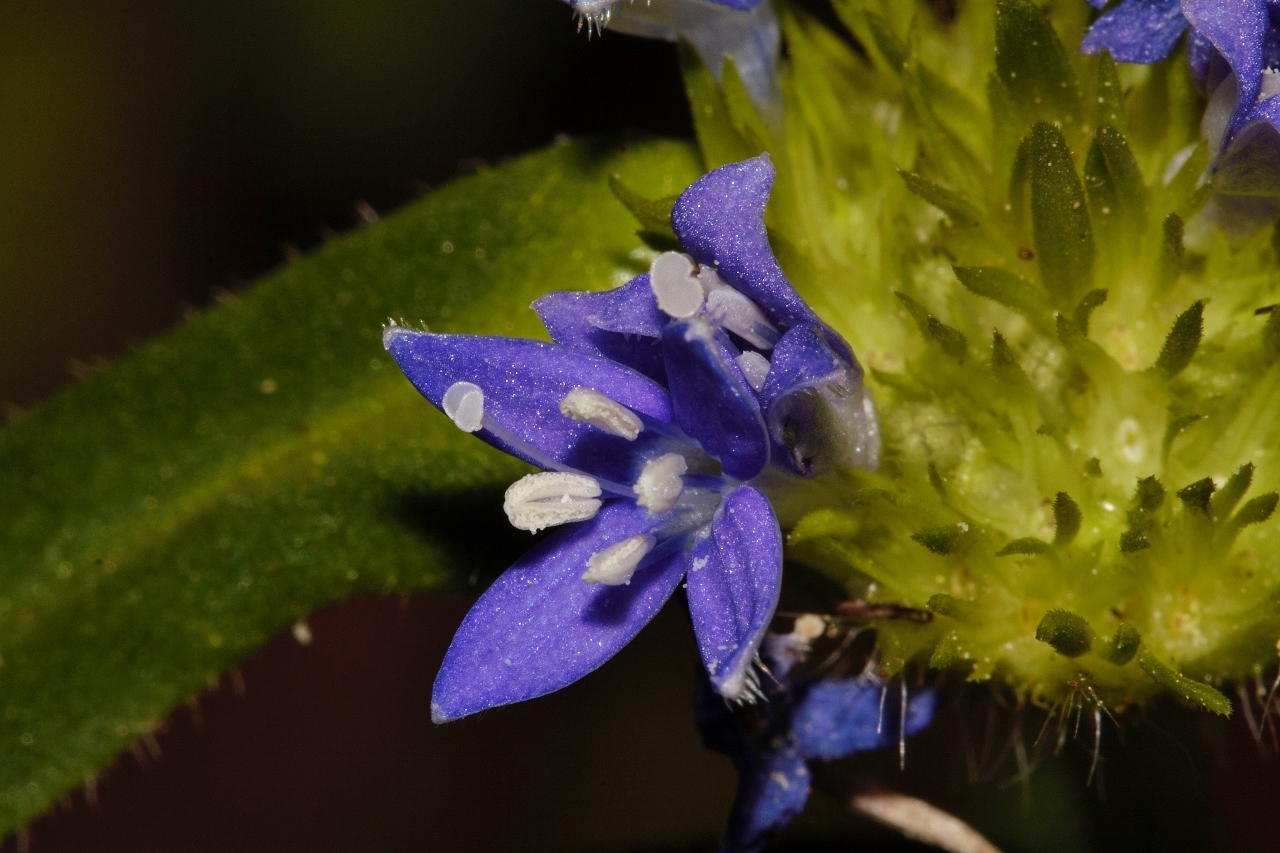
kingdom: Plantae
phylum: Tracheophyta
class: Magnoliopsida
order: Gentianales
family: Rubiaceae
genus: Spermacoce
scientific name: Spermacoce dibrachiata
